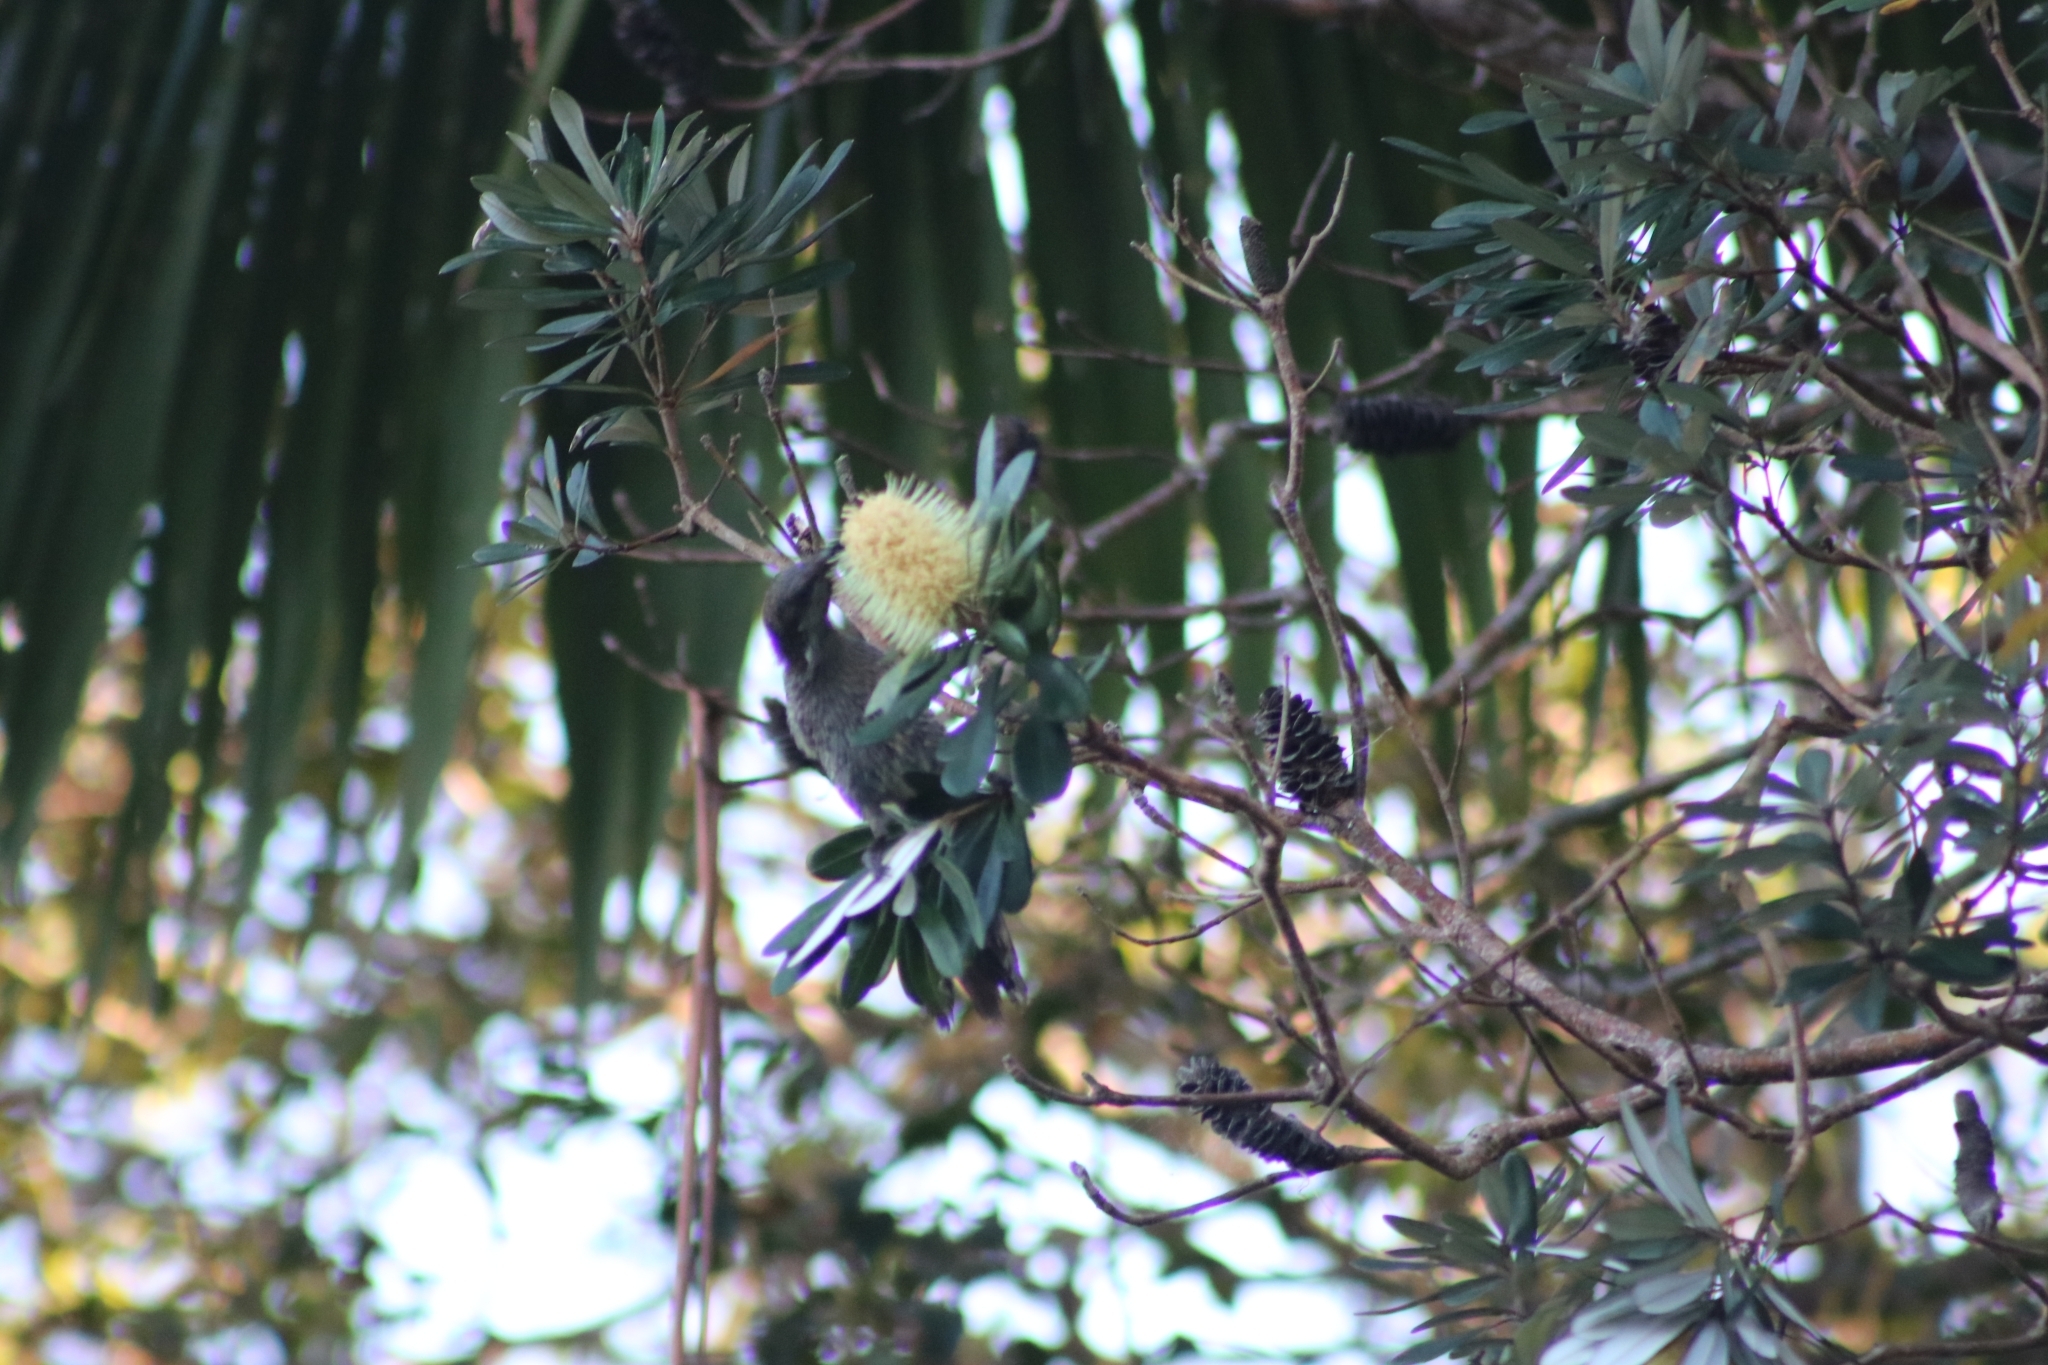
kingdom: Animalia
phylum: Chordata
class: Aves
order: Passeriformes
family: Meliphagidae
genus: Anthochaera
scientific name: Anthochaera chrysoptera
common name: Little wattlebird
